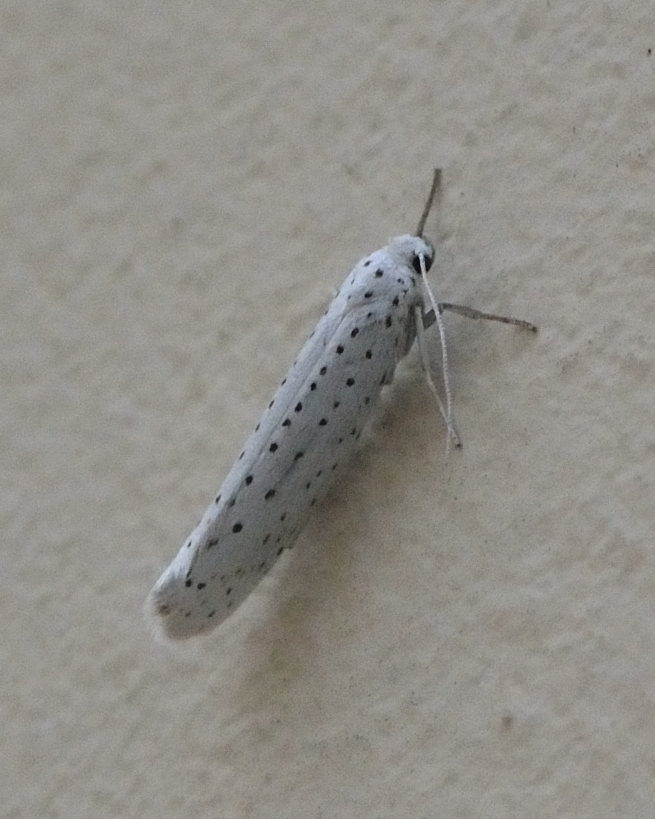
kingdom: Animalia
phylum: Arthropoda
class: Insecta
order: Lepidoptera
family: Yponomeutidae
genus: Yponomeuta
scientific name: Yponomeuta evonymella
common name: Bird-cherry ermine
